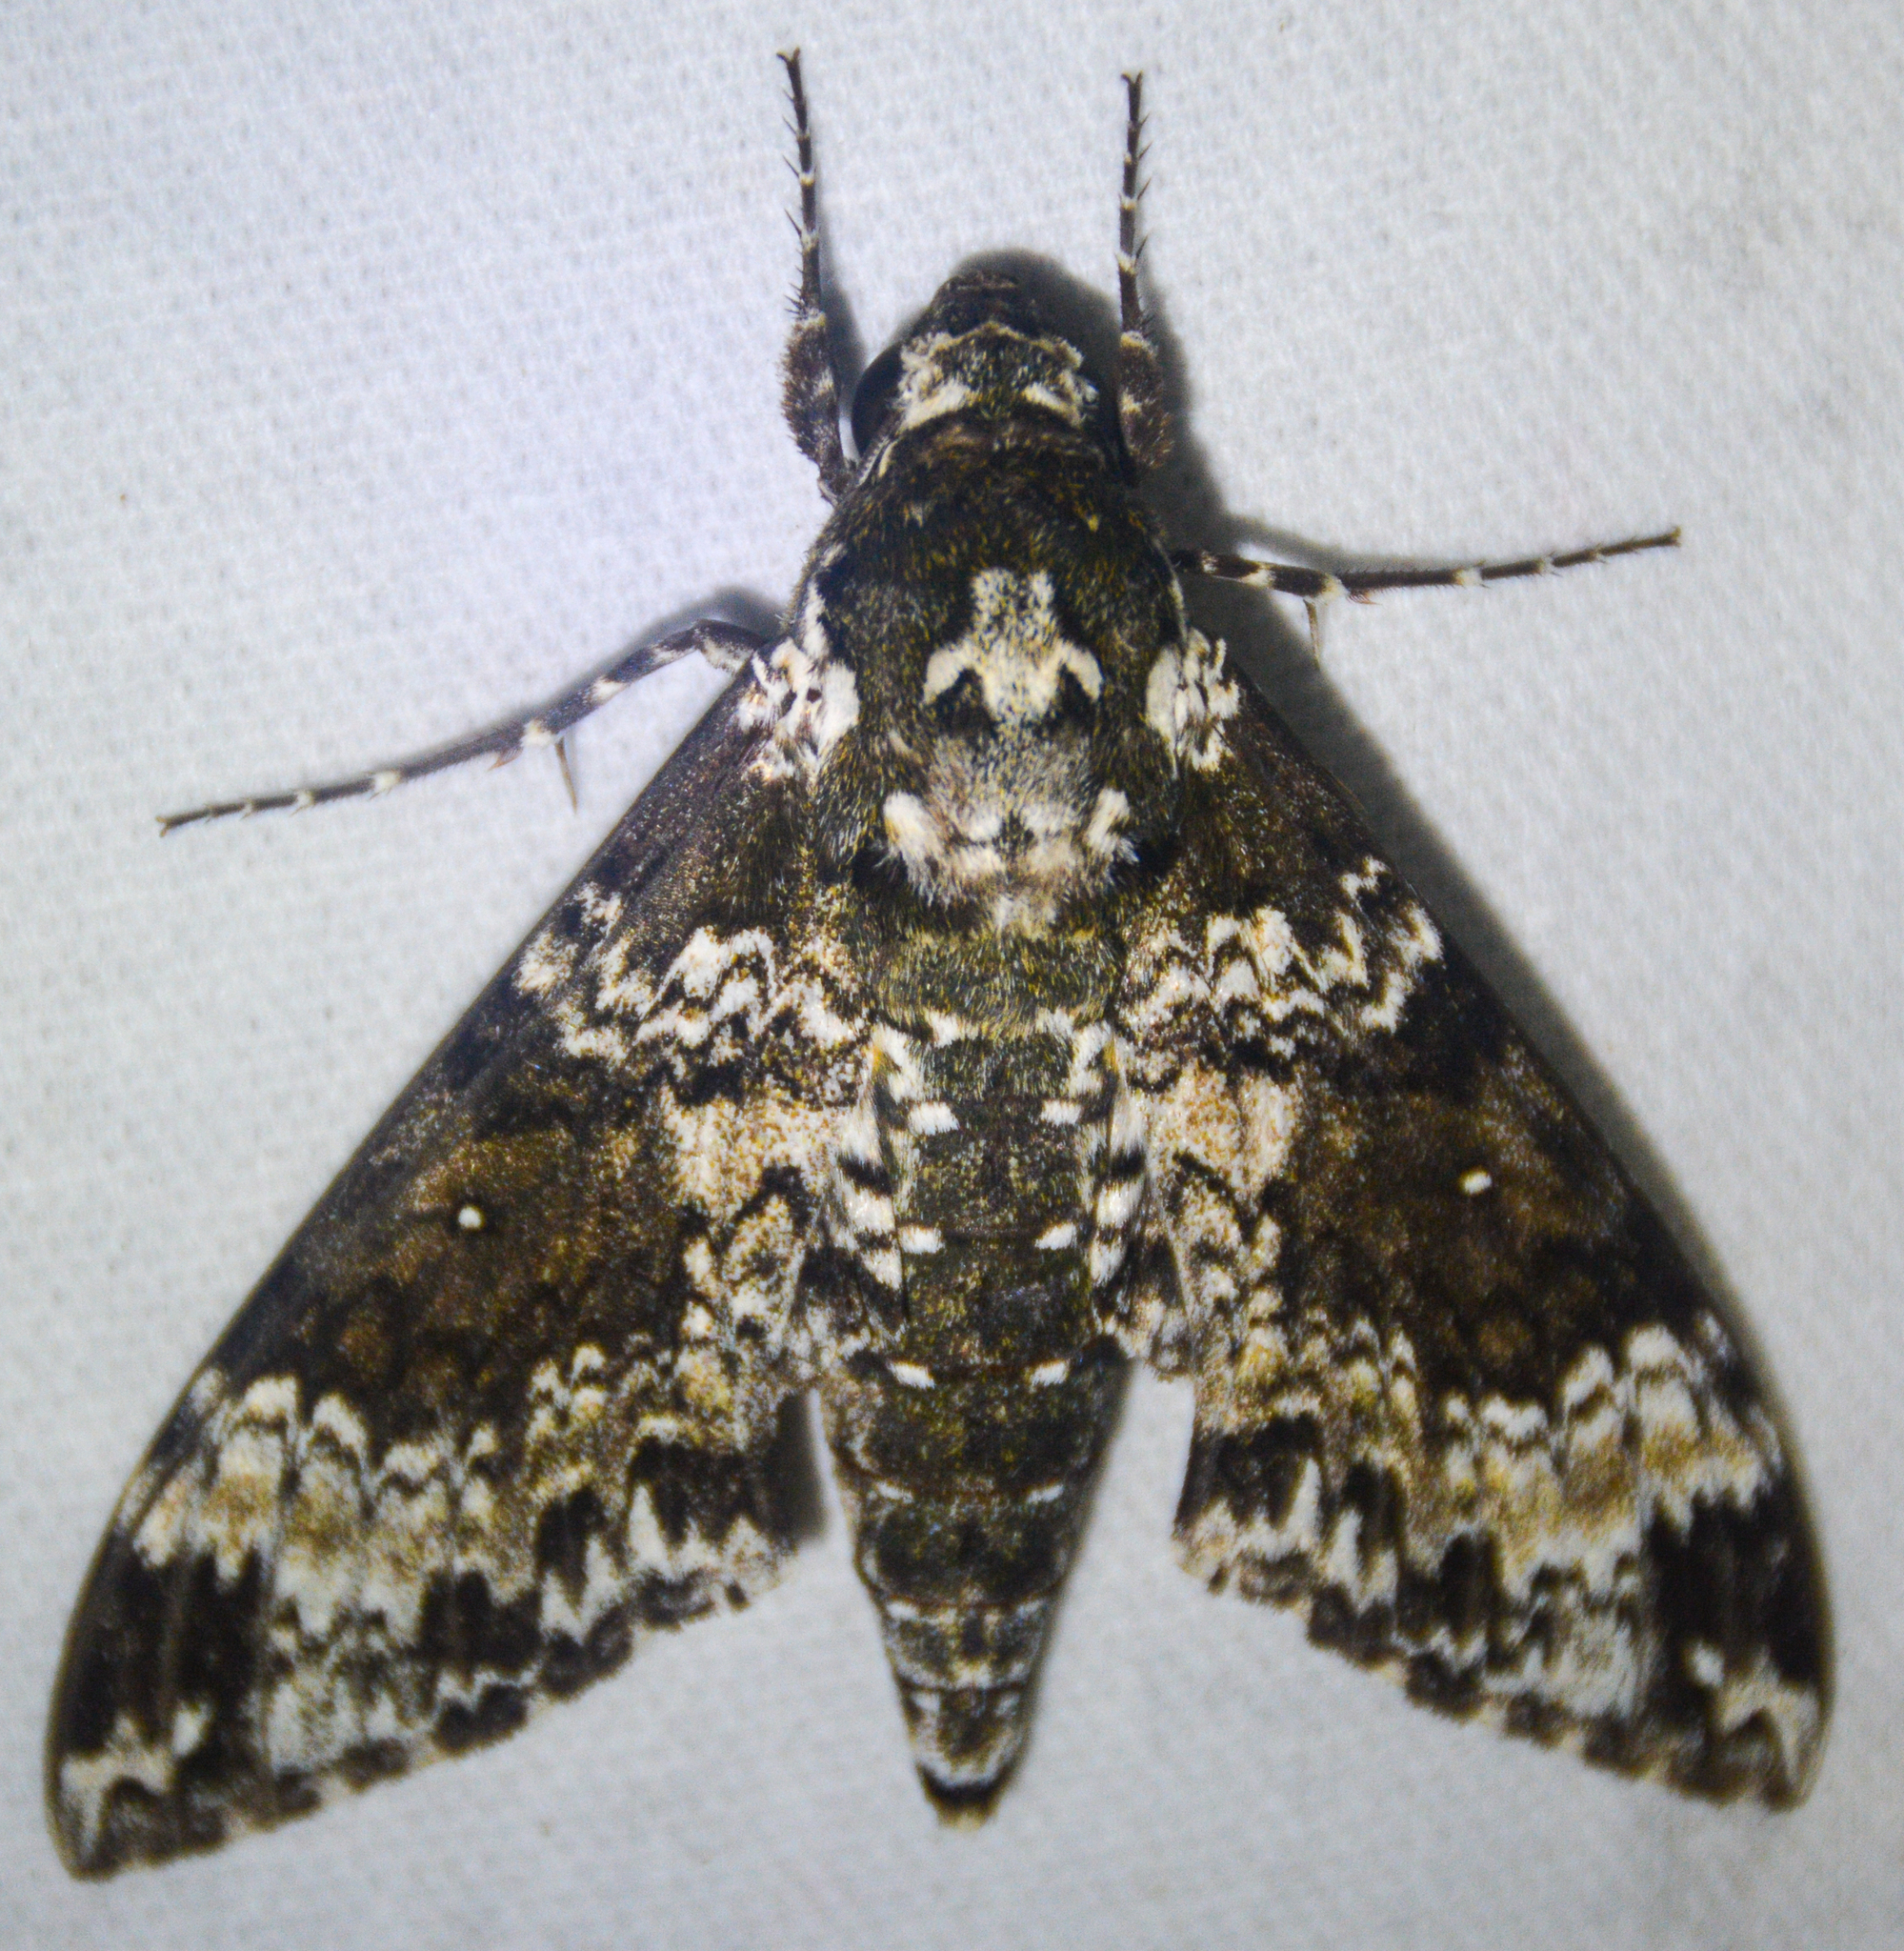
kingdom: Animalia
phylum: Arthropoda
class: Insecta
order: Lepidoptera
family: Sphingidae
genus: Manduca
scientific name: Manduca rustica
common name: Rustic sphinx
